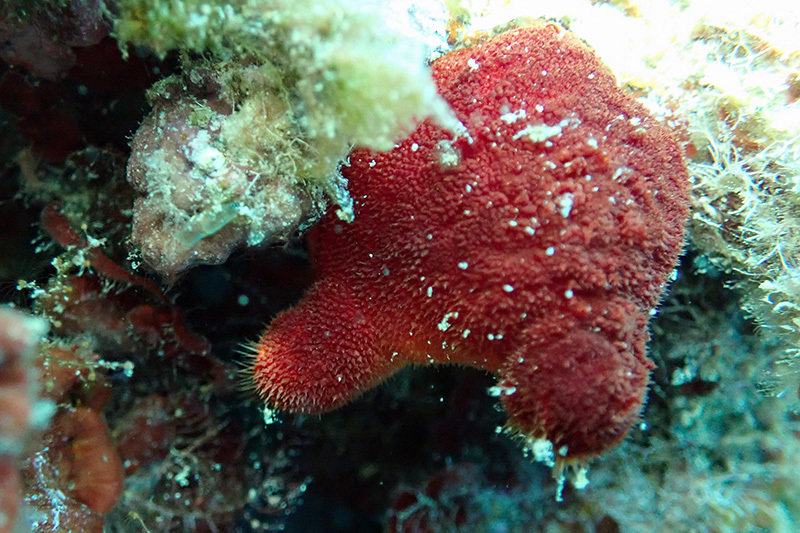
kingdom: Animalia
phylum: Chordata
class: Ascidiacea
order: Stolidobranchia
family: Pyuridae
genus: Halocynthia
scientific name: Halocynthia papillosa
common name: Red sea-squirt
